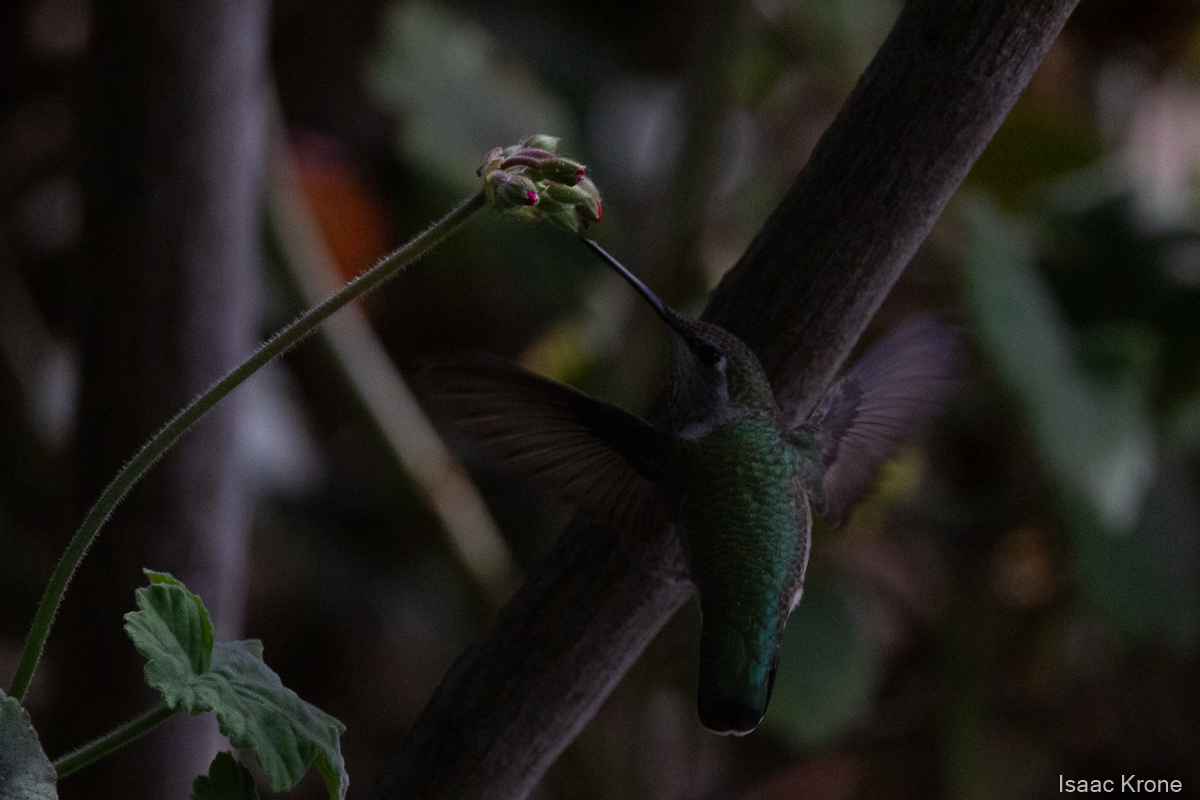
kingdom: Animalia
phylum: Chordata
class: Aves
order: Apodiformes
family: Trochilidae
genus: Calypte
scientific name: Calypte anna
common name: Anna's hummingbird
